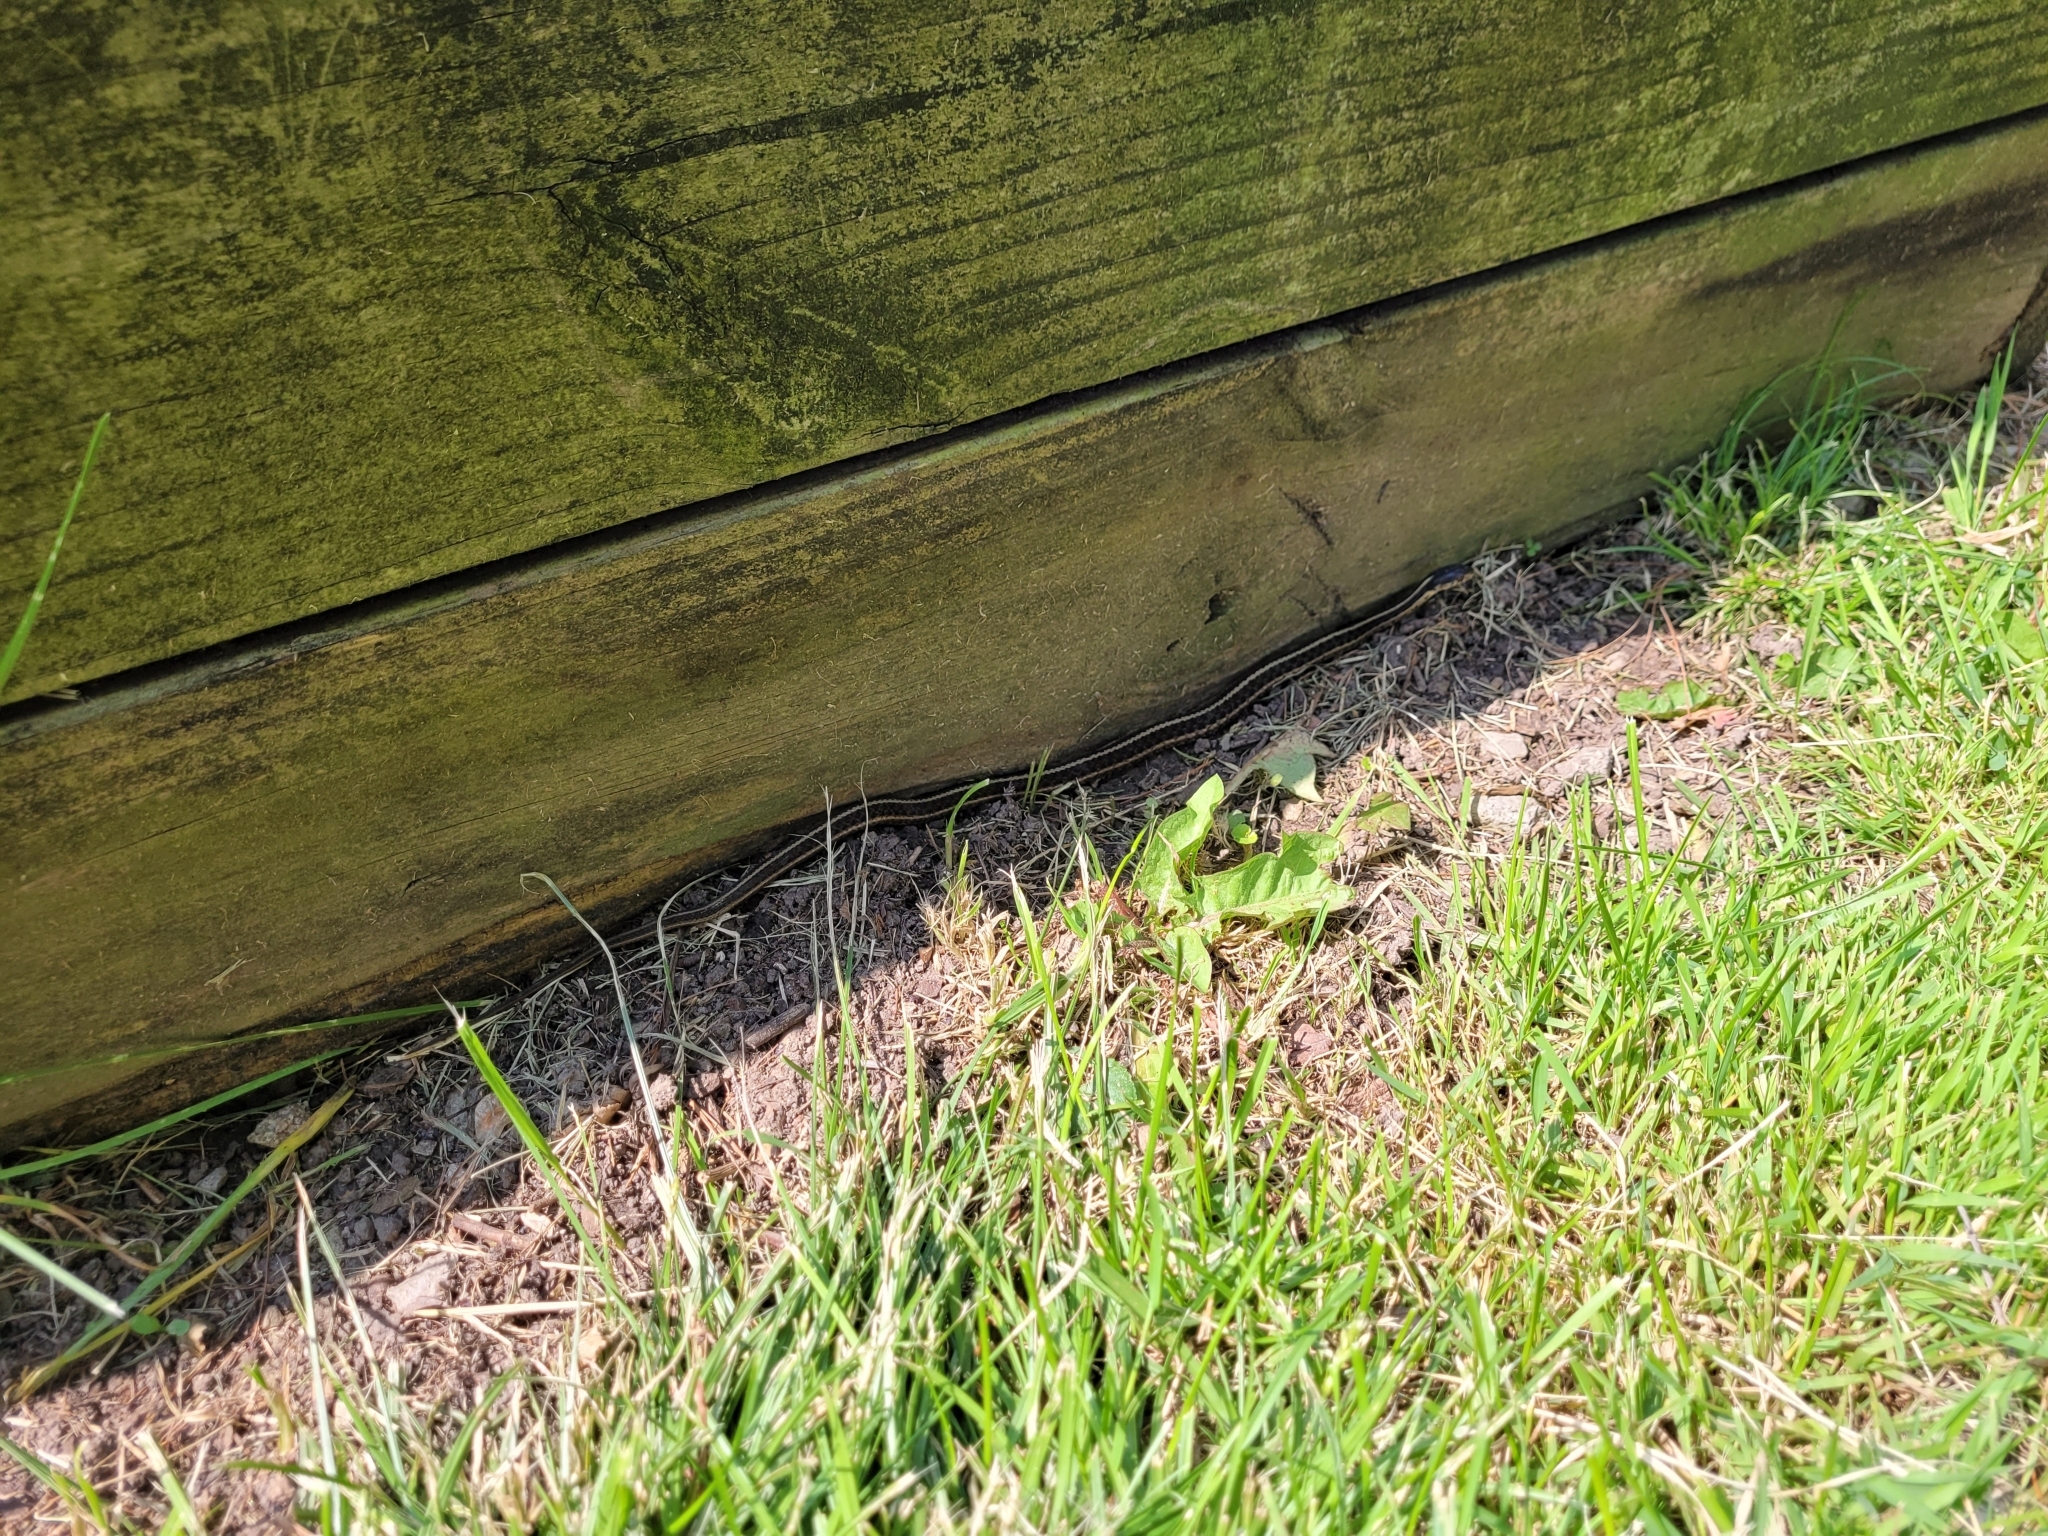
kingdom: Animalia
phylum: Chordata
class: Squamata
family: Colubridae
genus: Thamnophis
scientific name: Thamnophis sirtalis
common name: Common garter snake
